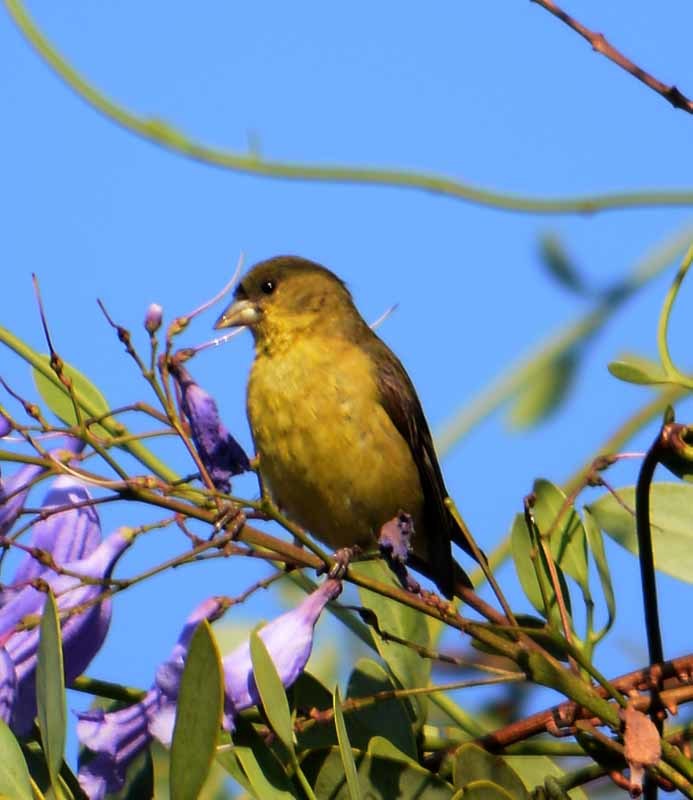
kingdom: Animalia
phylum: Chordata
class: Aves
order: Passeriformes
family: Fringillidae
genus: Spinus
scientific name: Spinus psaltria
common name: Lesser goldfinch
